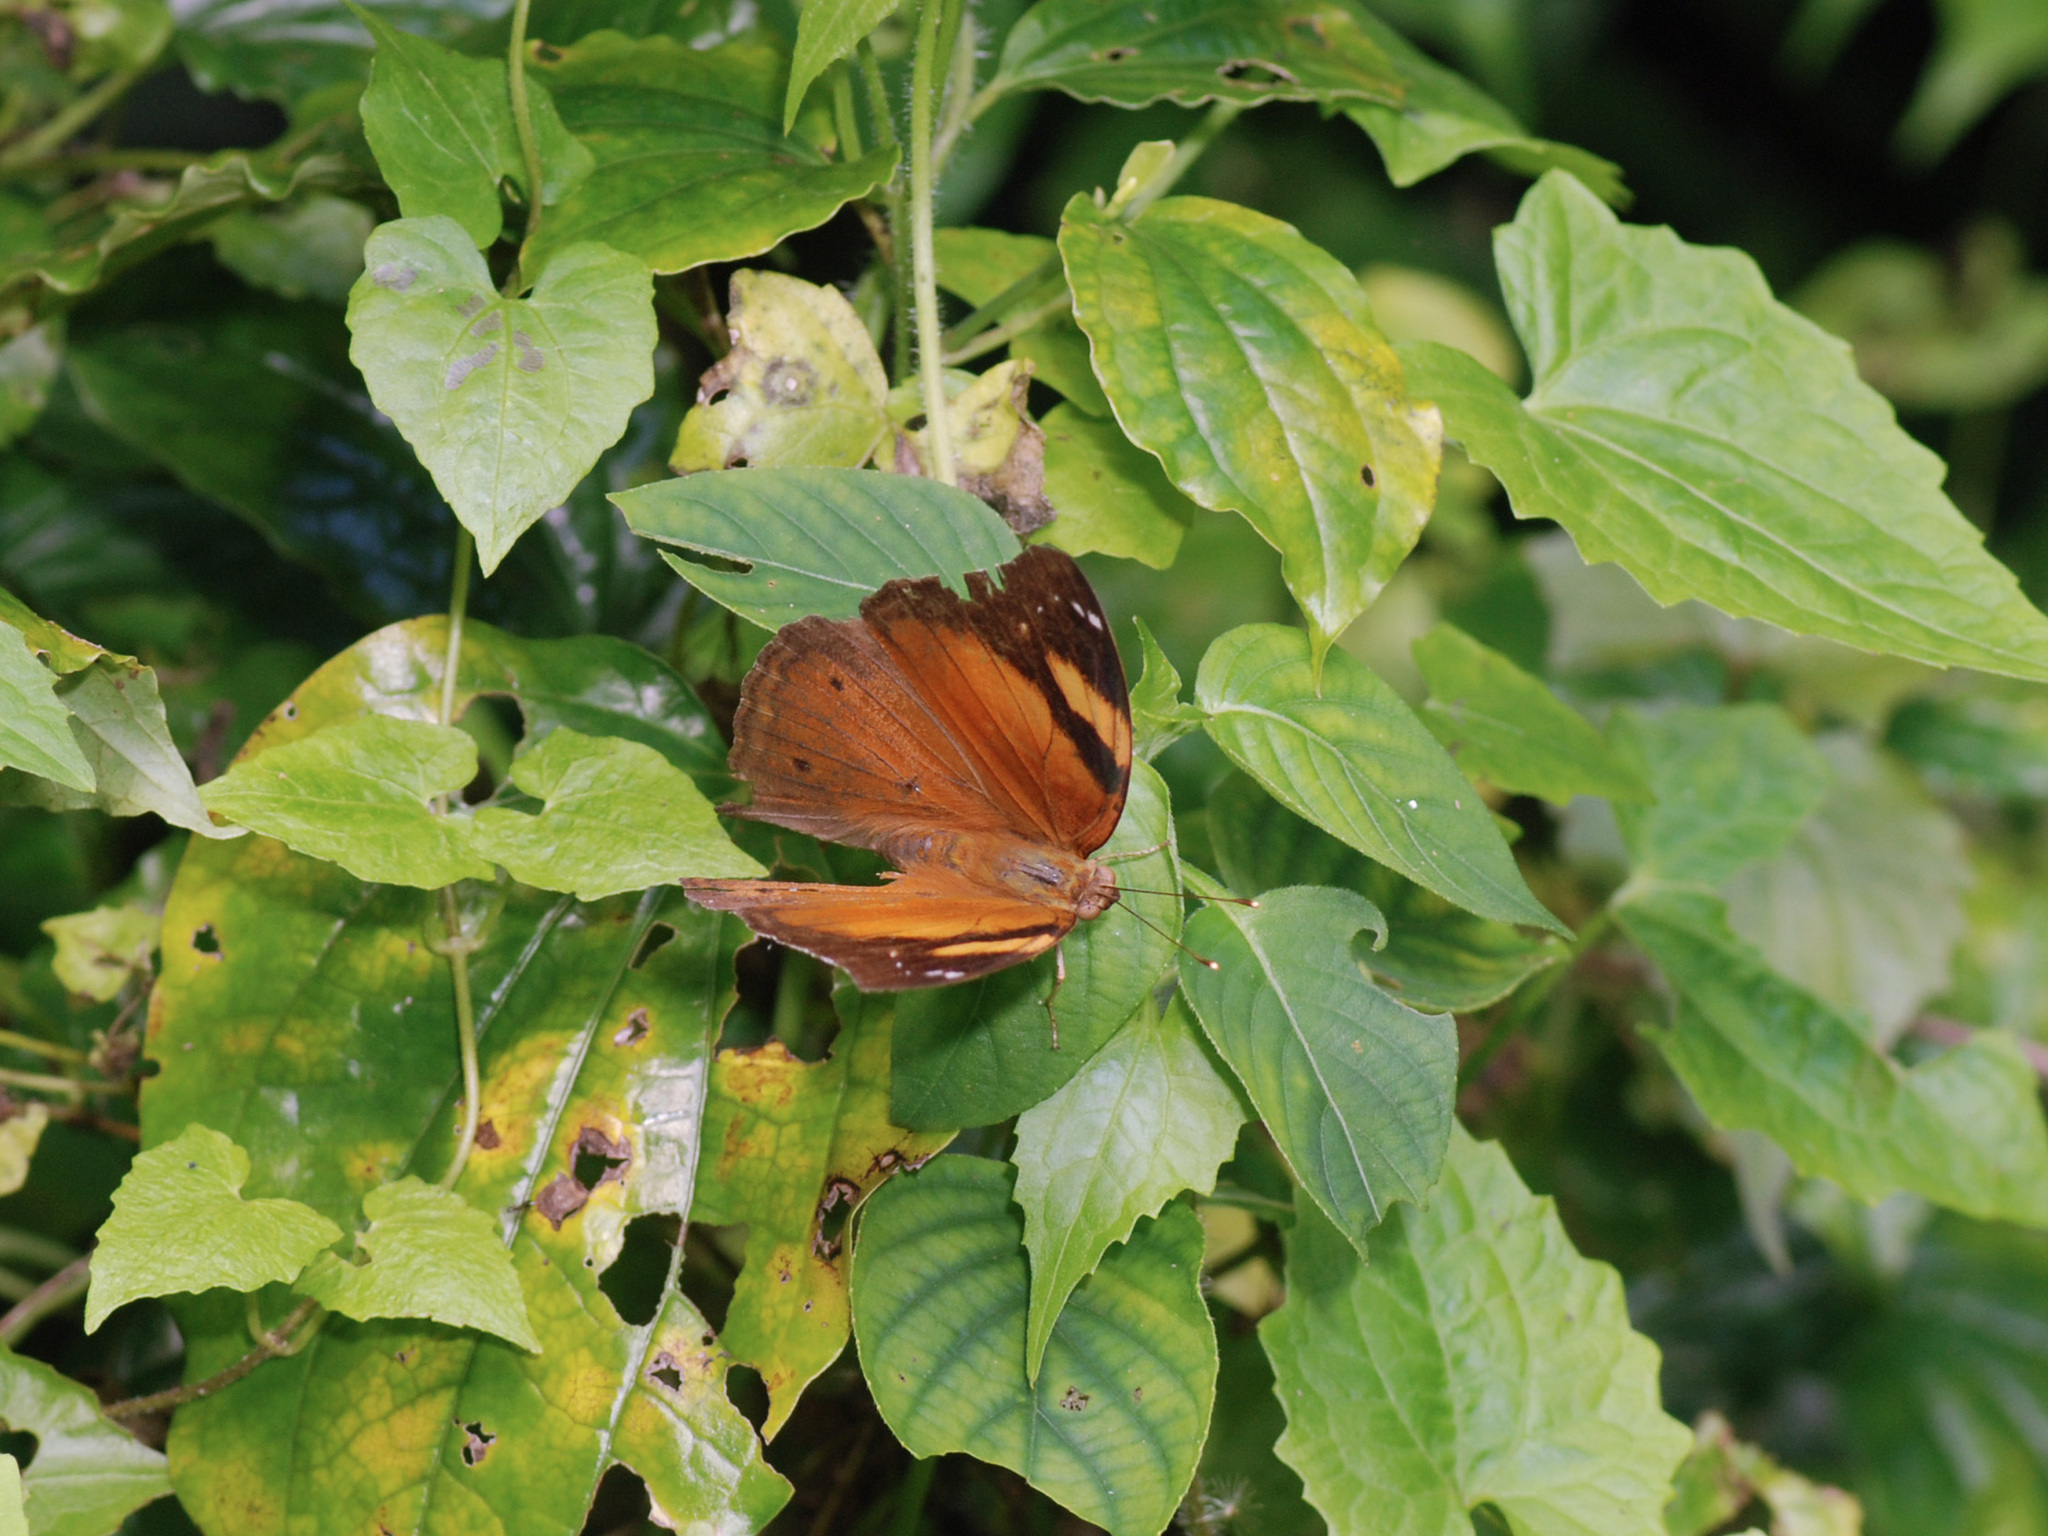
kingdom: Animalia
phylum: Arthropoda
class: Insecta
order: Lepidoptera
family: Nymphalidae
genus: Doleschallia
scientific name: Doleschallia bisaltide
